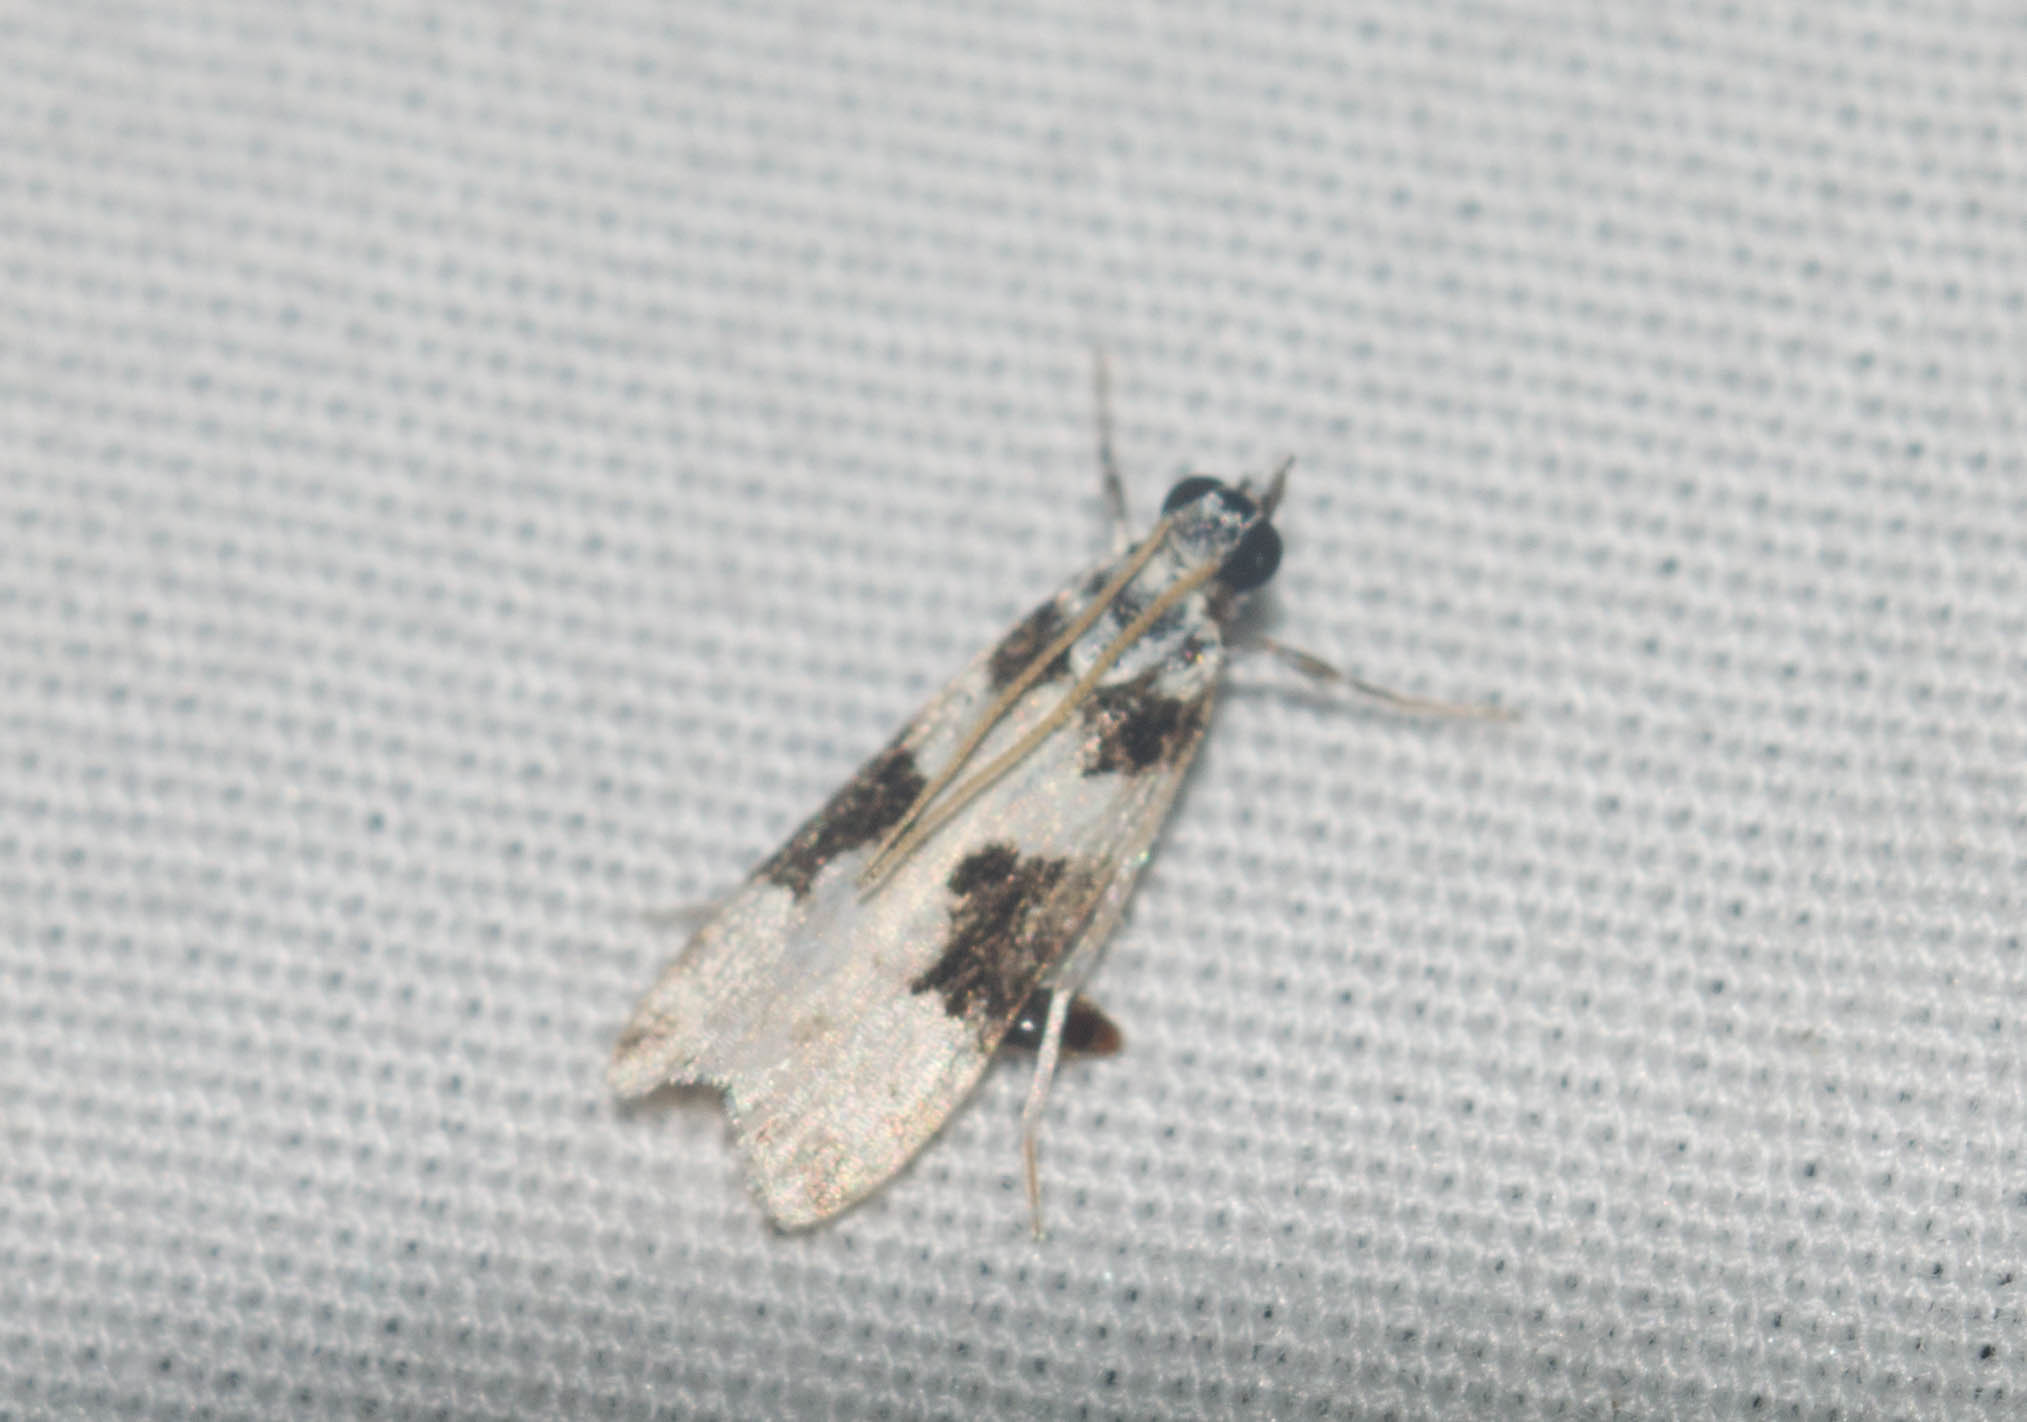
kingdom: Animalia
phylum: Arthropoda
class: Insecta
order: Lepidoptera
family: Crambidae
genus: Eudonia
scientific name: Eudonia
